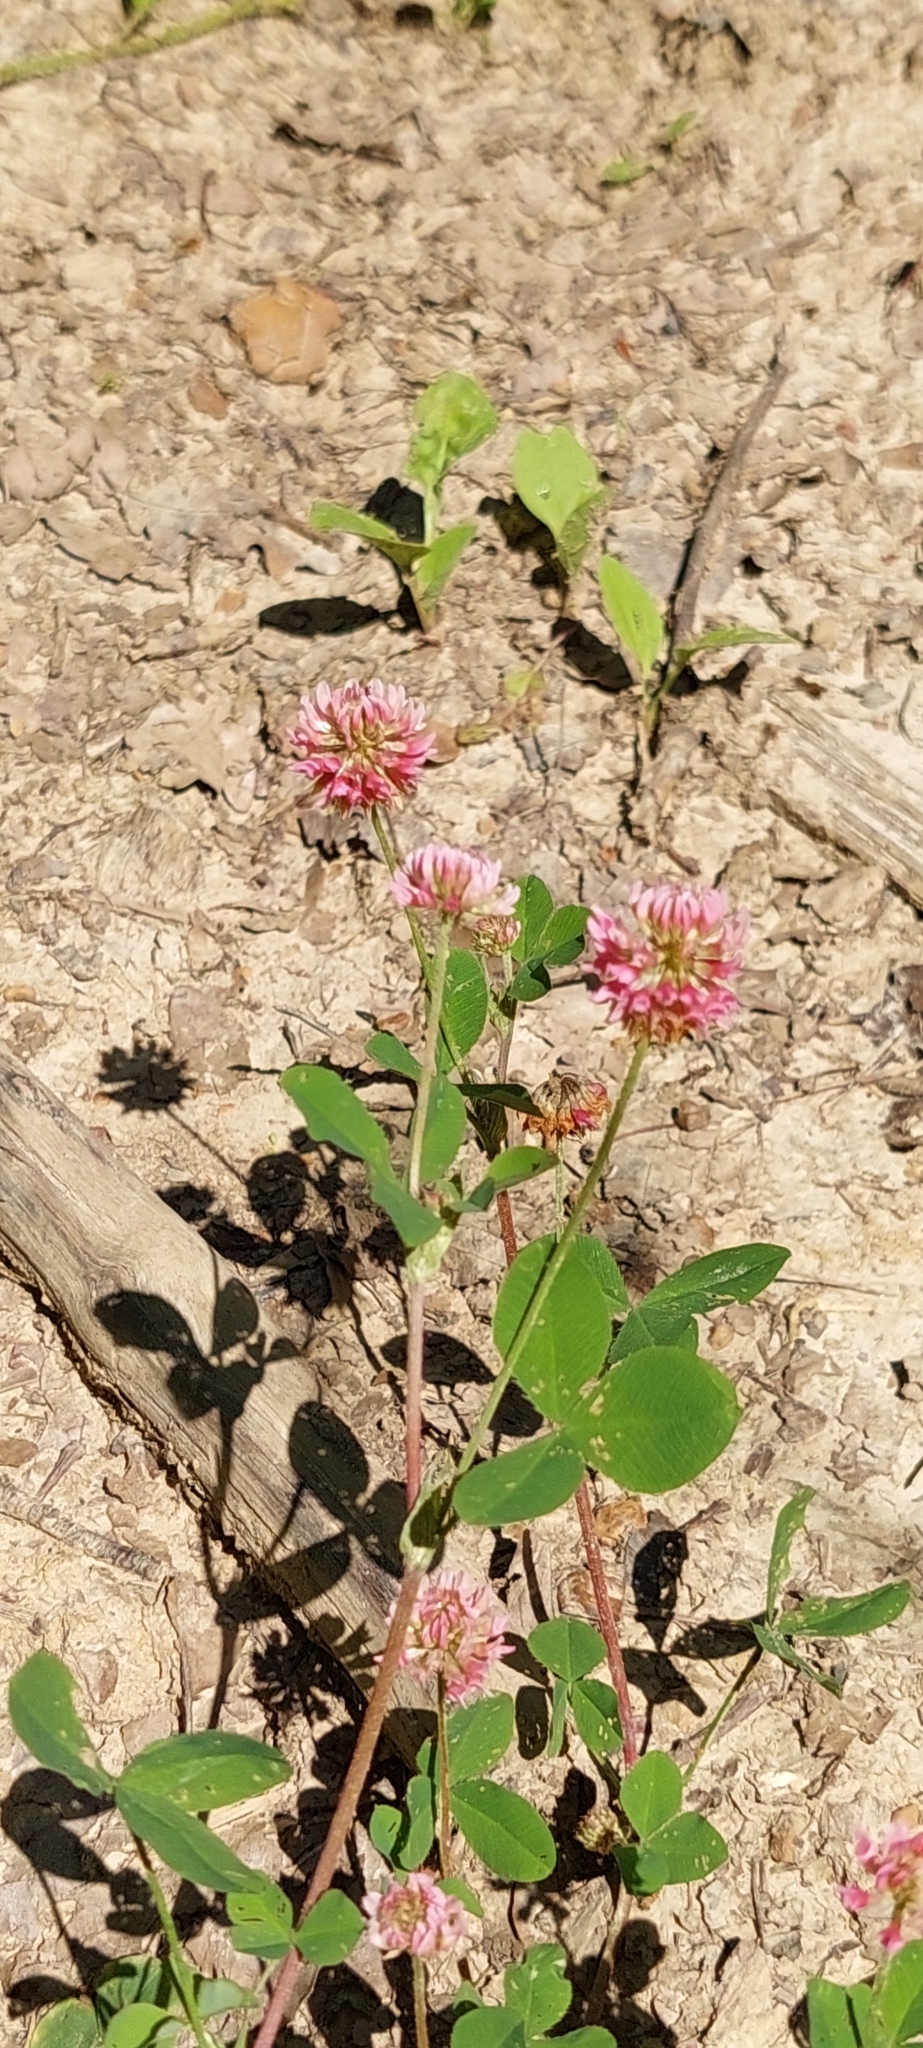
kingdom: Plantae
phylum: Tracheophyta
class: Magnoliopsida
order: Fabales
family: Fabaceae
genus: Trifolium
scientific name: Trifolium hybridum
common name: Alsike clover
